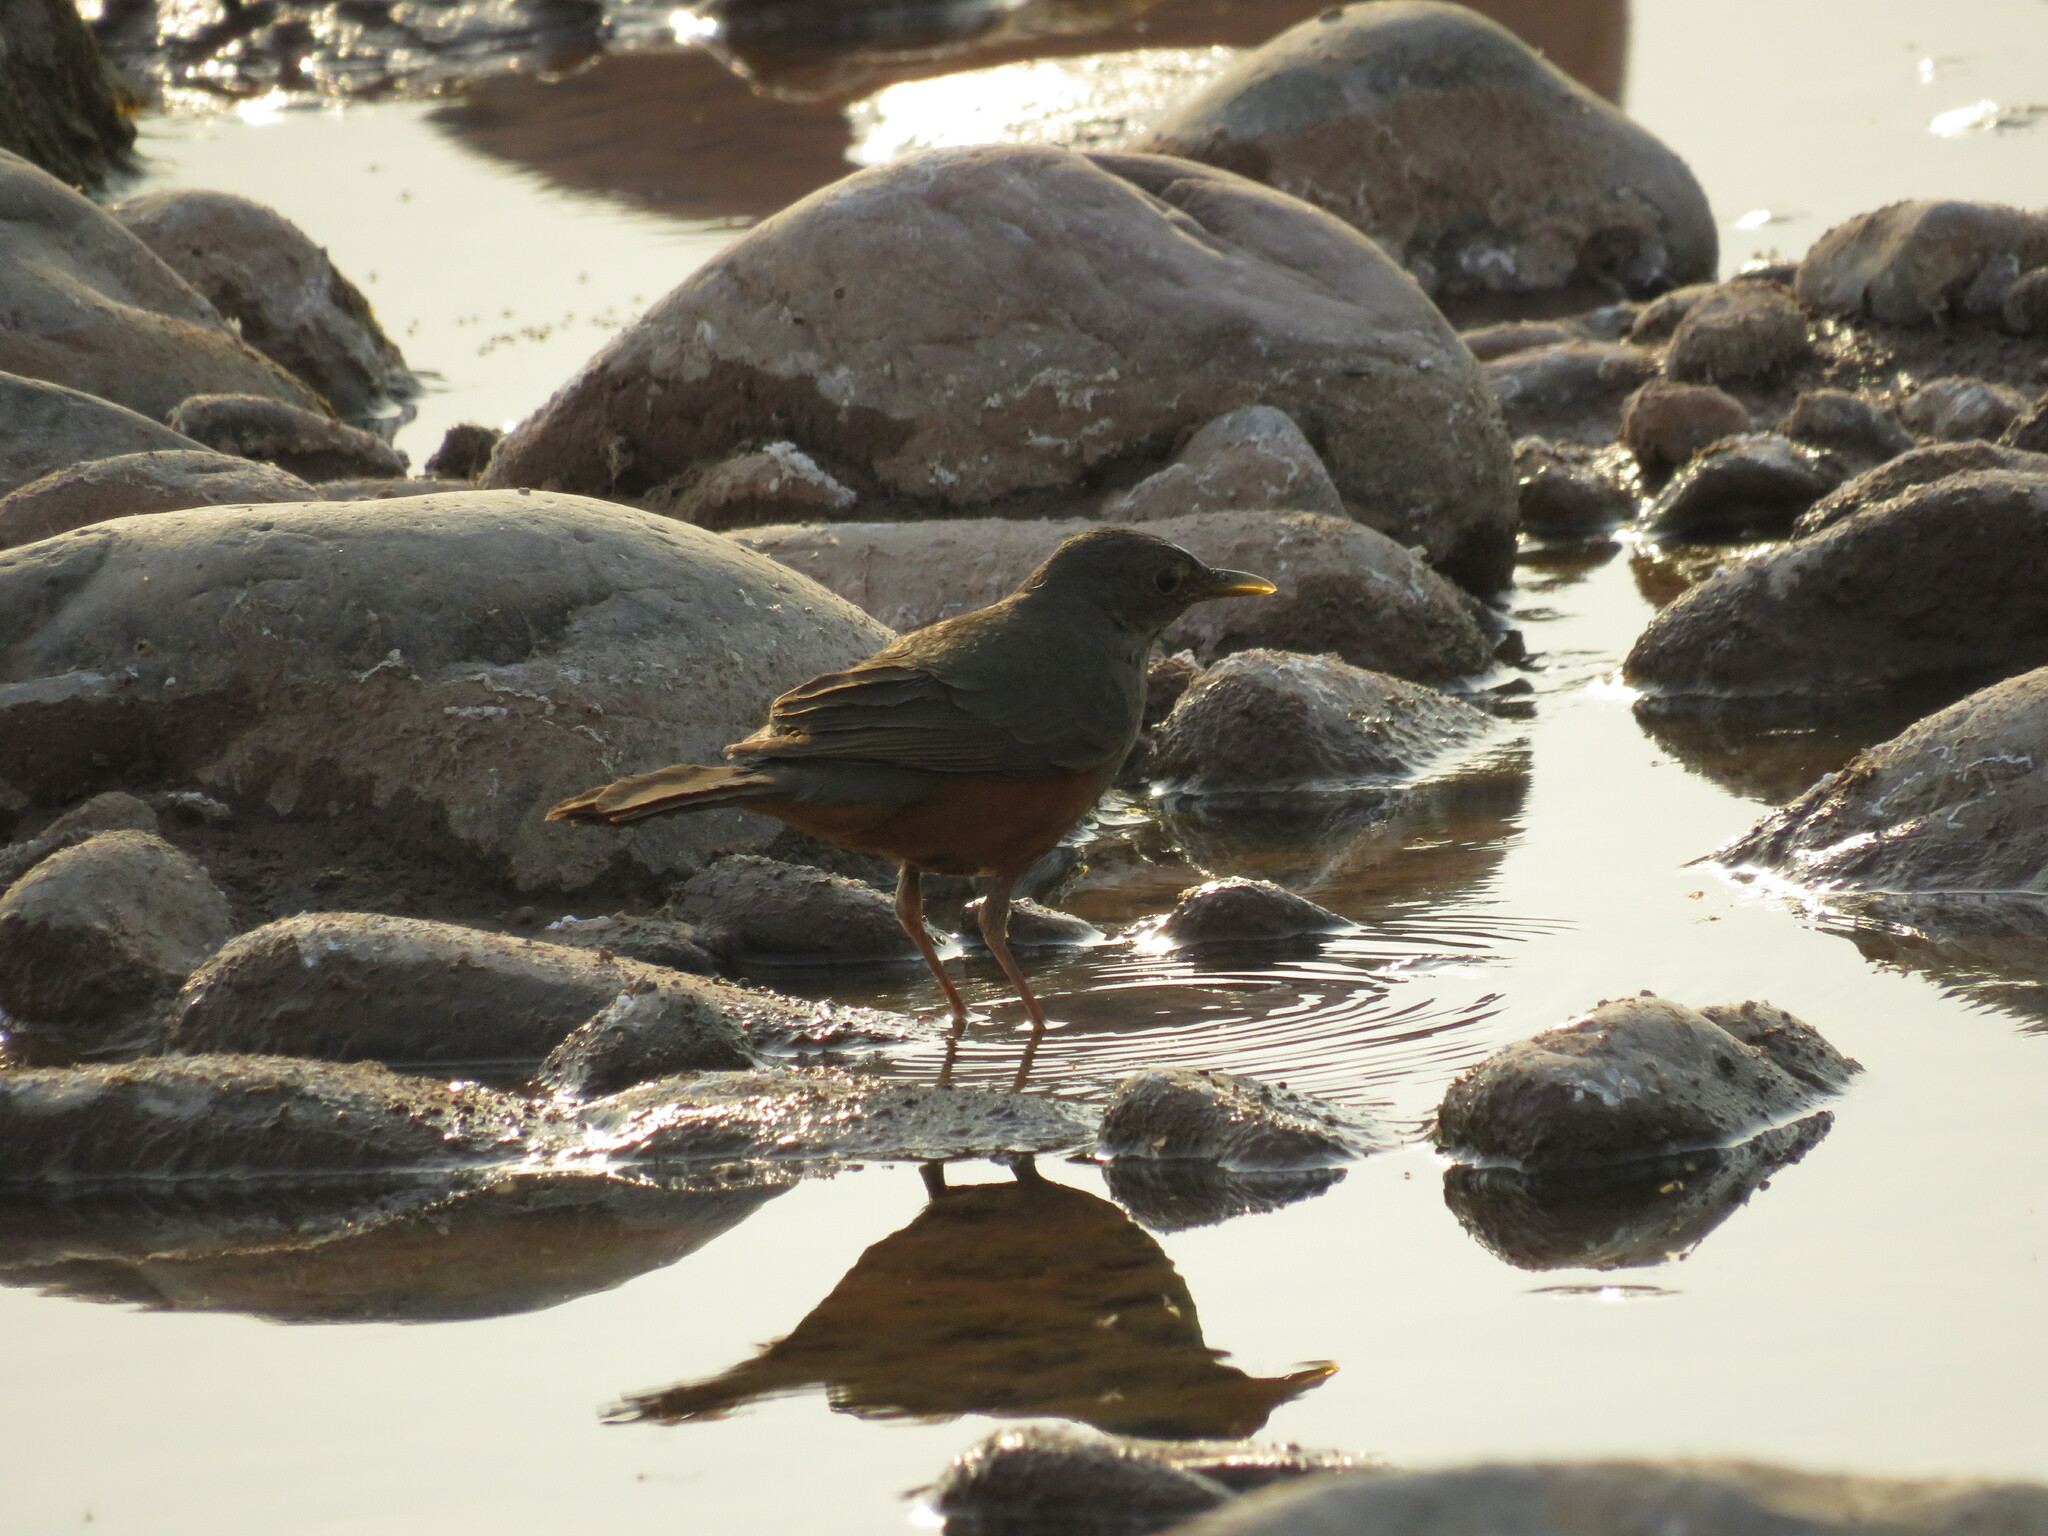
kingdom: Animalia
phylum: Chordata
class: Aves
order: Passeriformes
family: Turdidae
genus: Turdus
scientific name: Turdus rufiventris
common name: Rufous-bellied thrush
